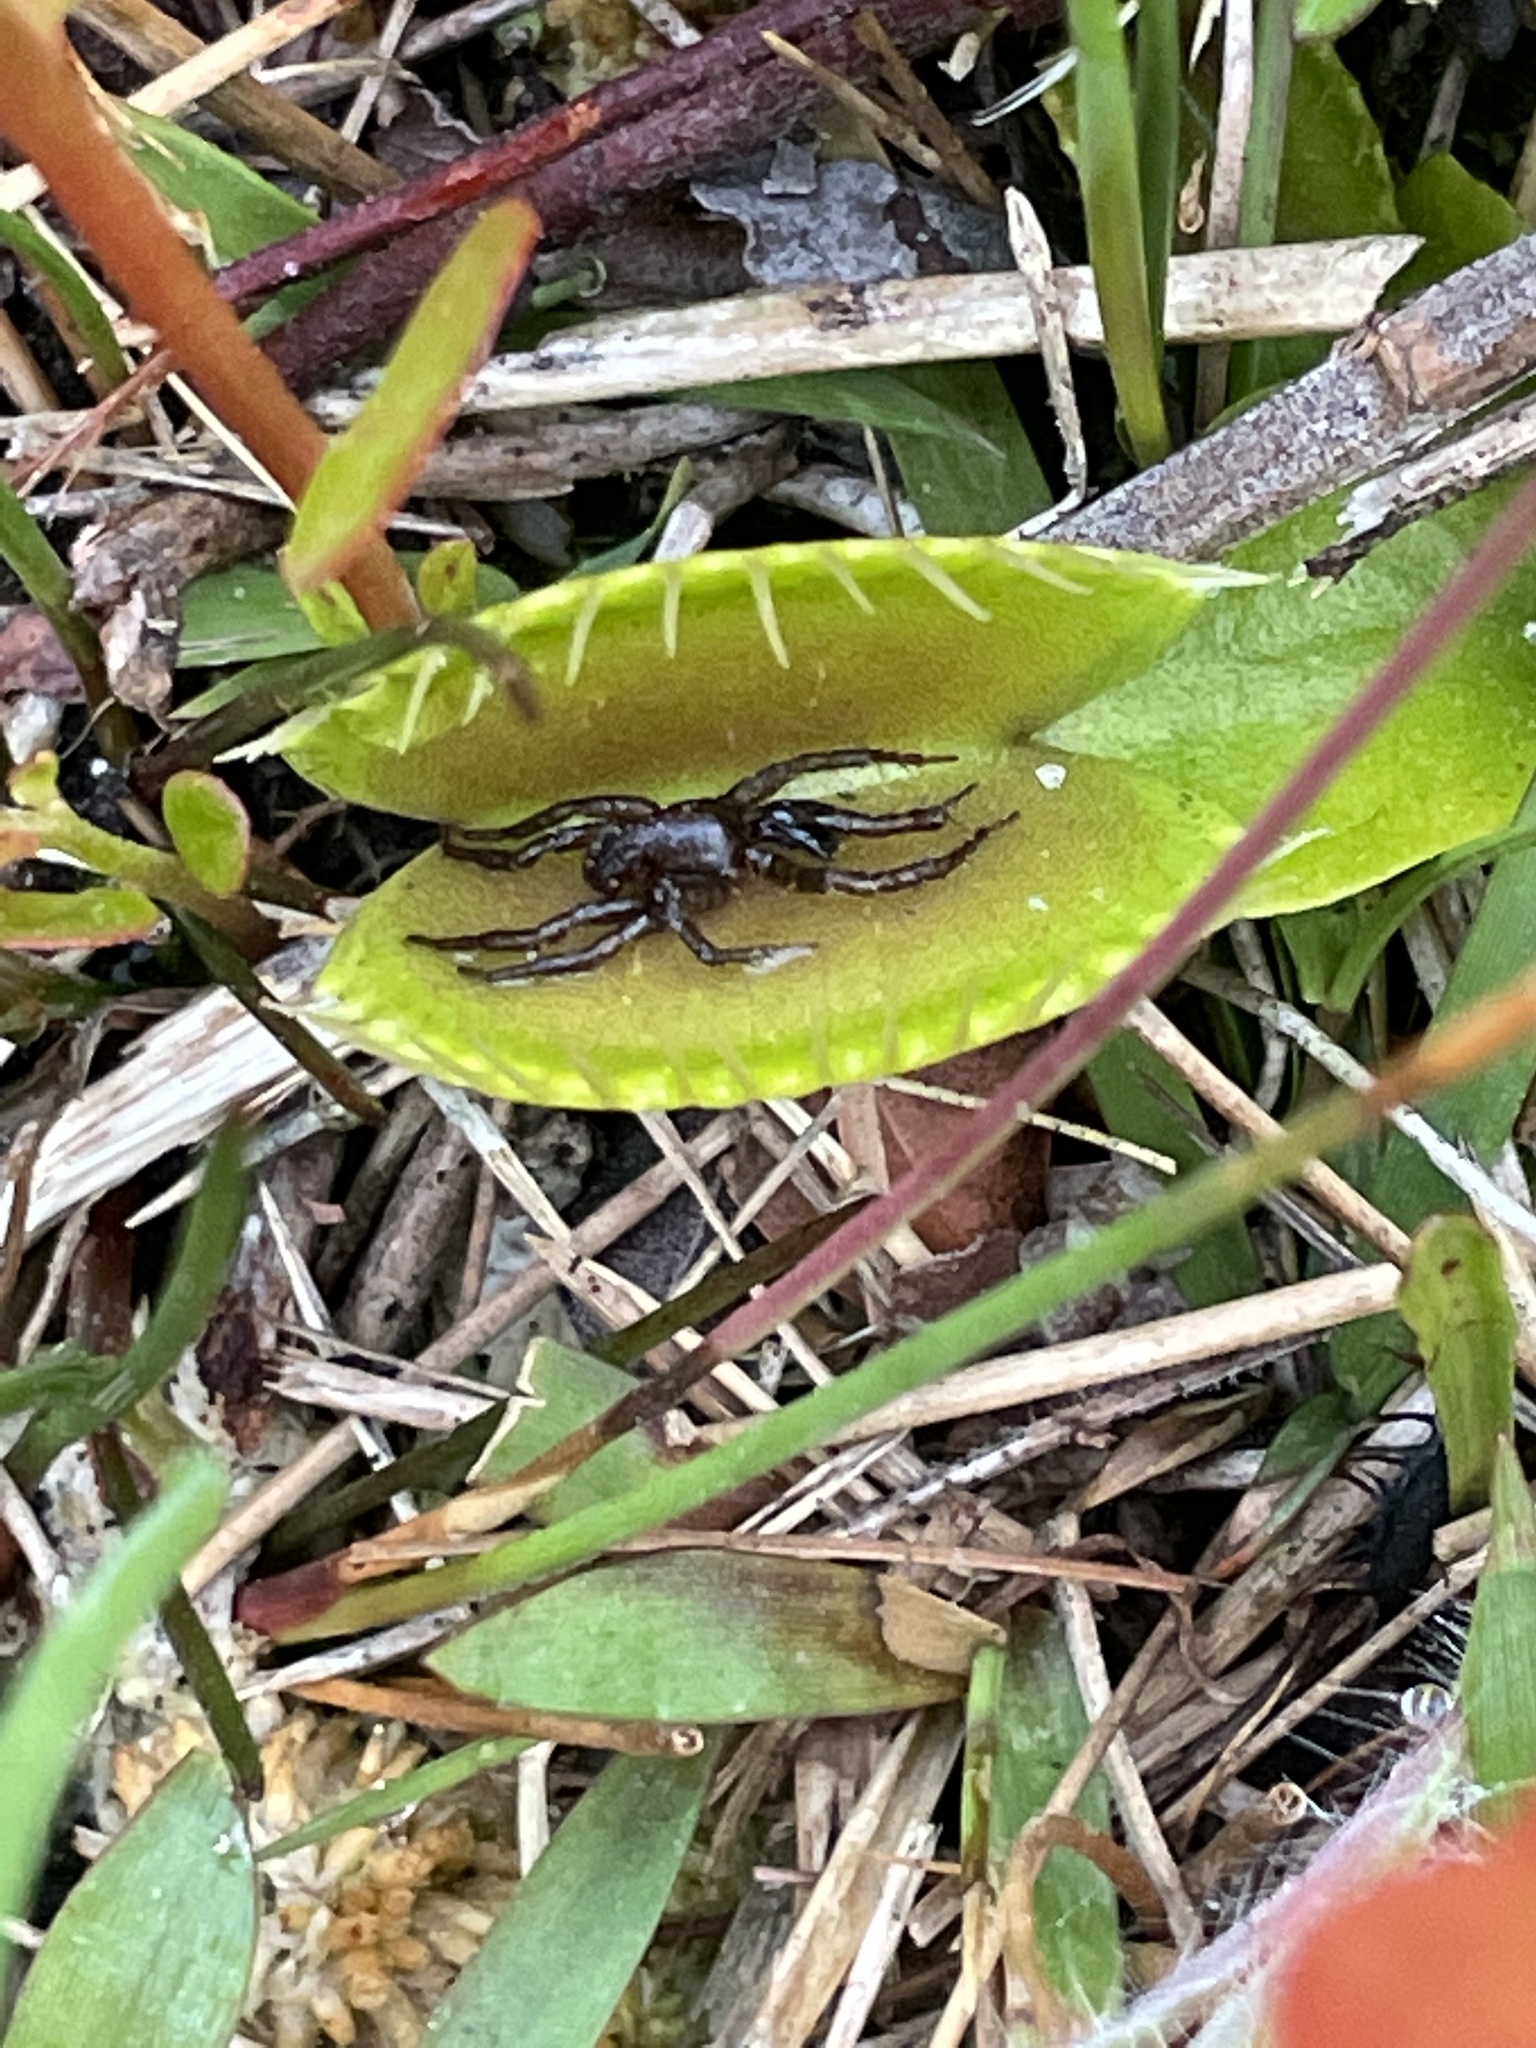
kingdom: Plantae
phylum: Tracheophyta
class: Magnoliopsida
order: Caryophyllales
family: Droseraceae
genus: Dionaea
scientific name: Dionaea muscipula
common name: Venus flytrap
